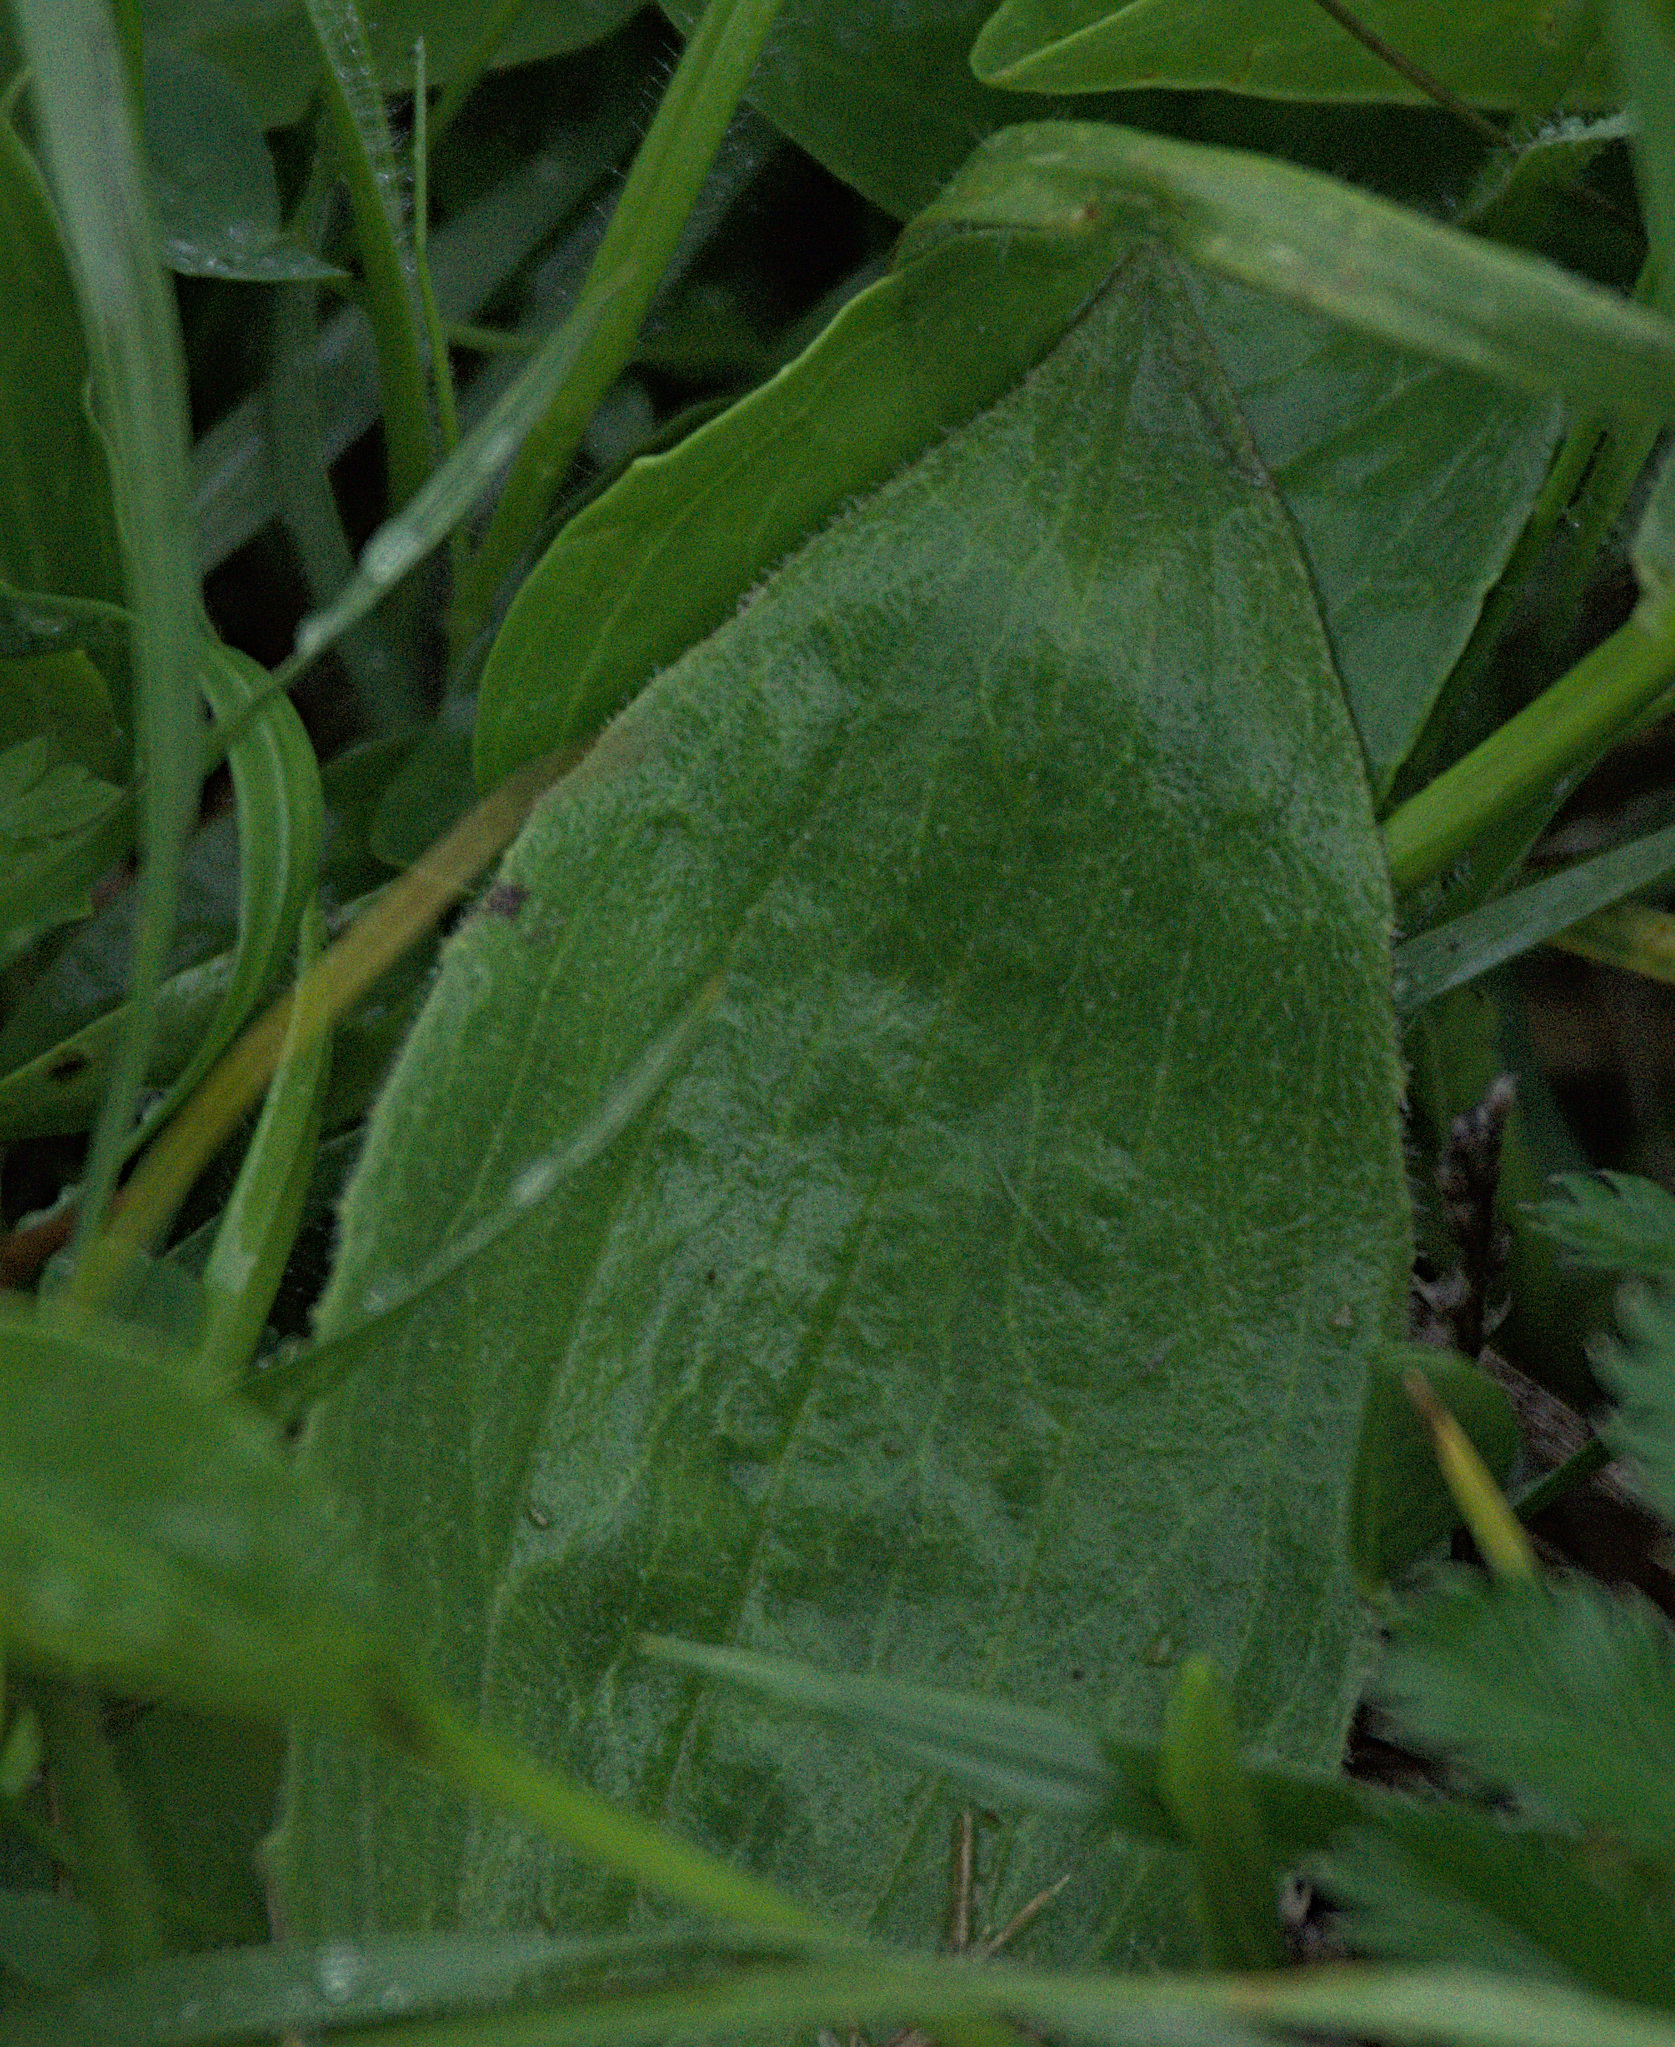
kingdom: Plantae
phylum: Tracheophyta
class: Magnoliopsida
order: Lamiales
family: Plantaginaceae
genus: Plantago
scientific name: Plantago media
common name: Hoary plantain
